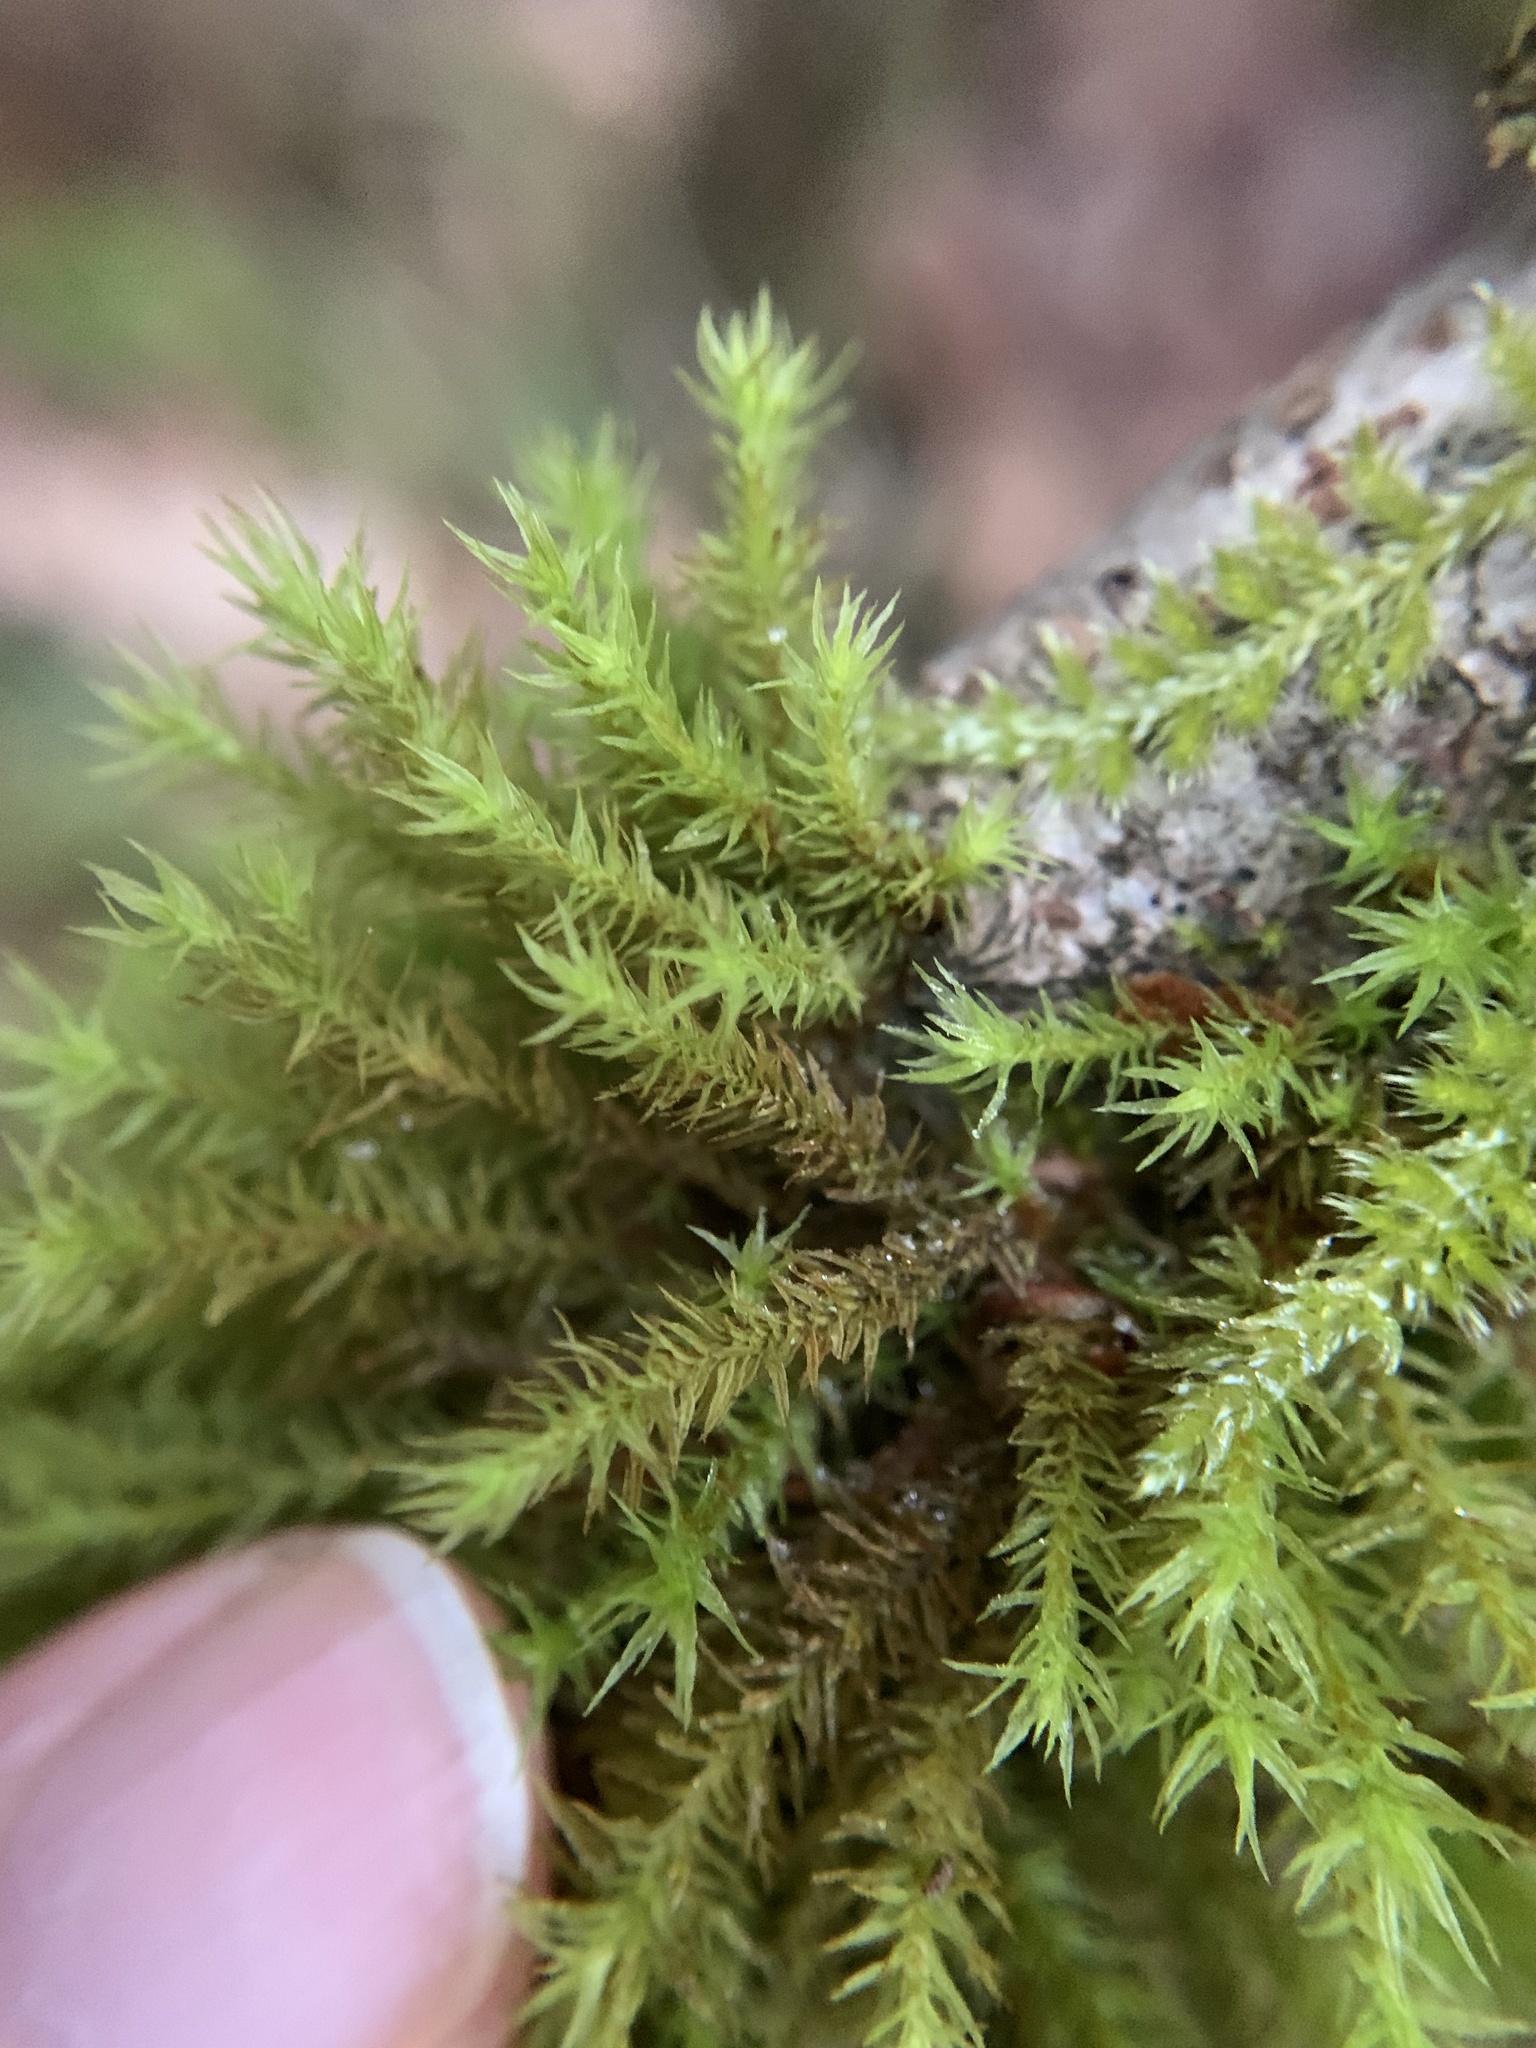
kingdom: Plantae
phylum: Bryophyta
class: Bryopsida
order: Orthotrichales
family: Orthotrichaceae
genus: Pulvigera
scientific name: Pulvigera lyellii
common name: Lyell's bristle-moss
